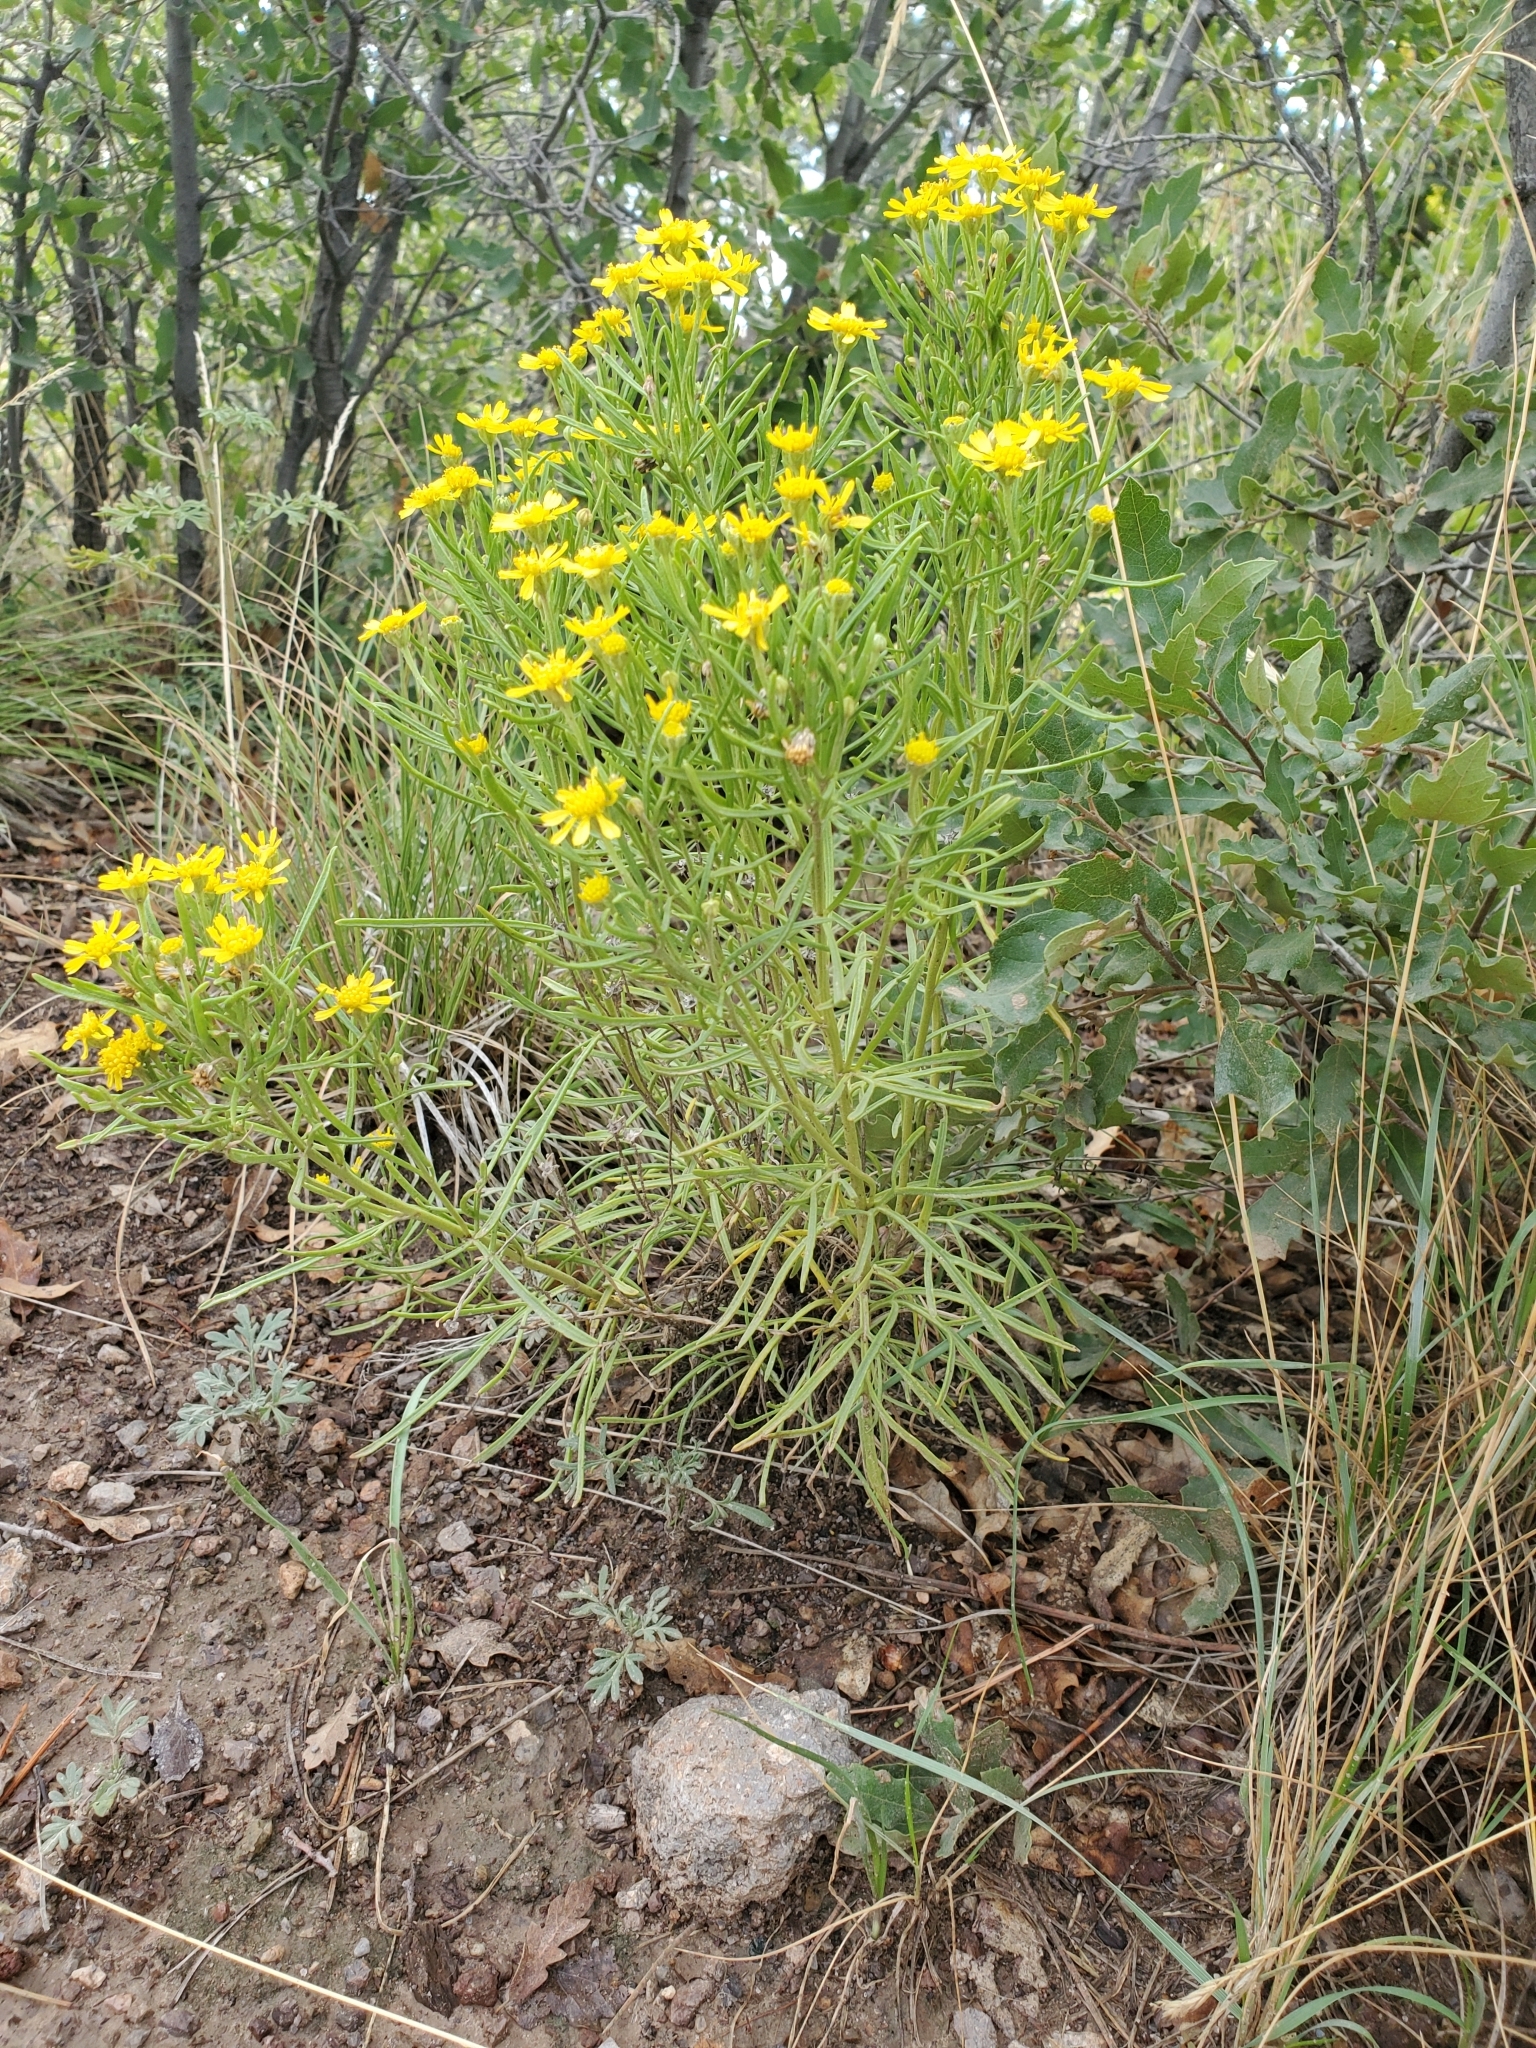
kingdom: Plantae
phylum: Tracheophyta
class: Magnoliopsida
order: Asterales
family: Asteraceae
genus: Hymenoxys
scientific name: Hymenoxys richardsonii
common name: Pingue rubberweed
